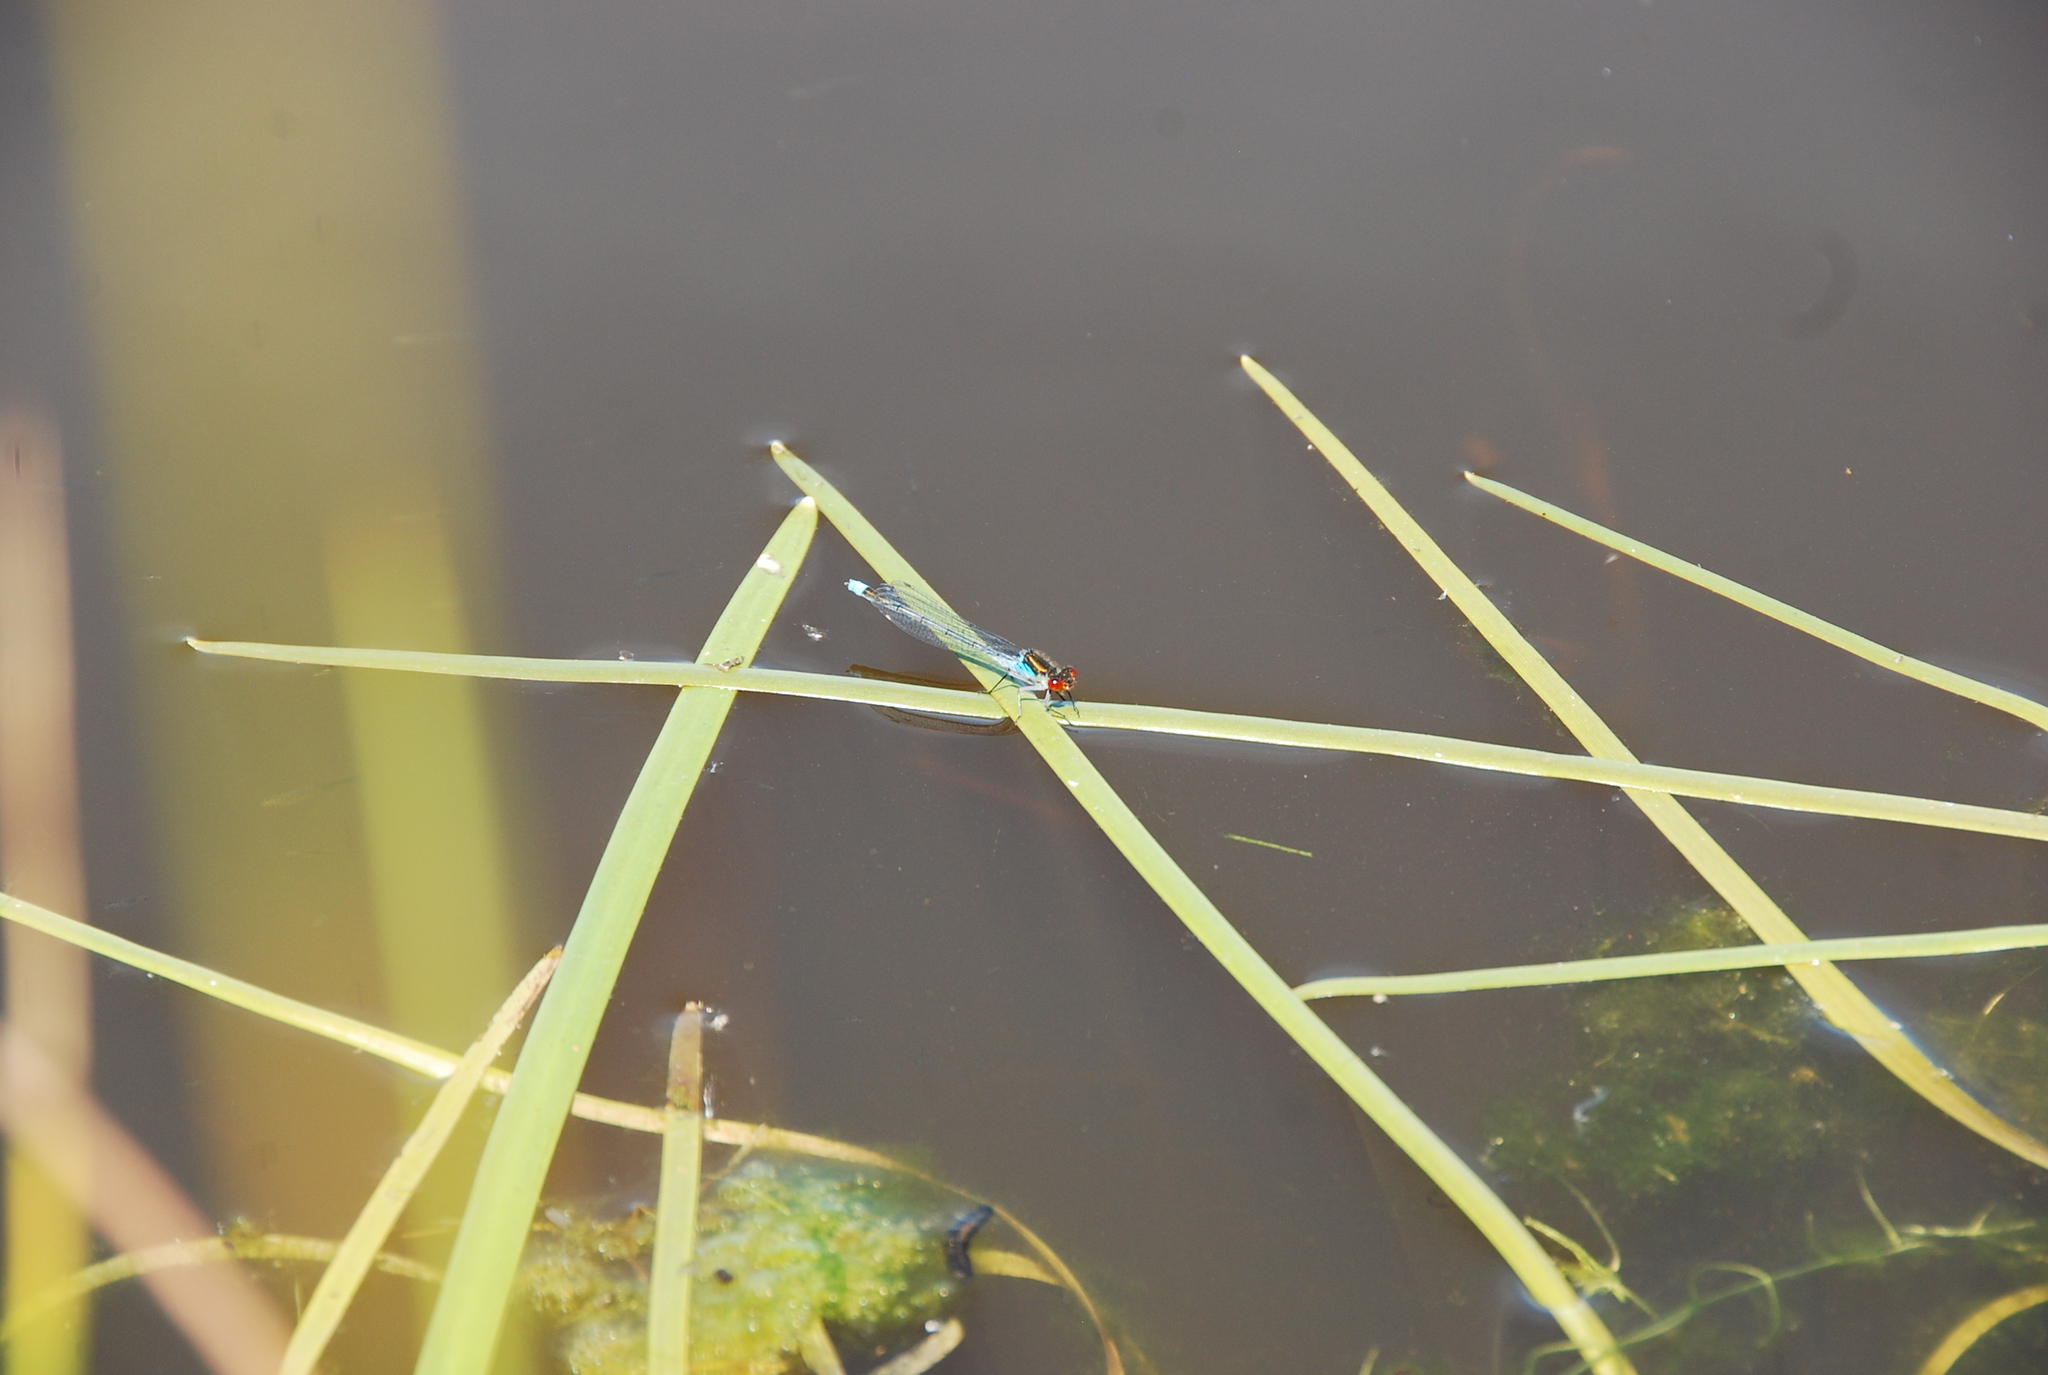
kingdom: Animalia
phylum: Arthropoda
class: Insecta
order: Odonata
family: Coenagrionidae
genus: Erythromma
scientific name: Erythromma najas
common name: Red-eyed damselfly
